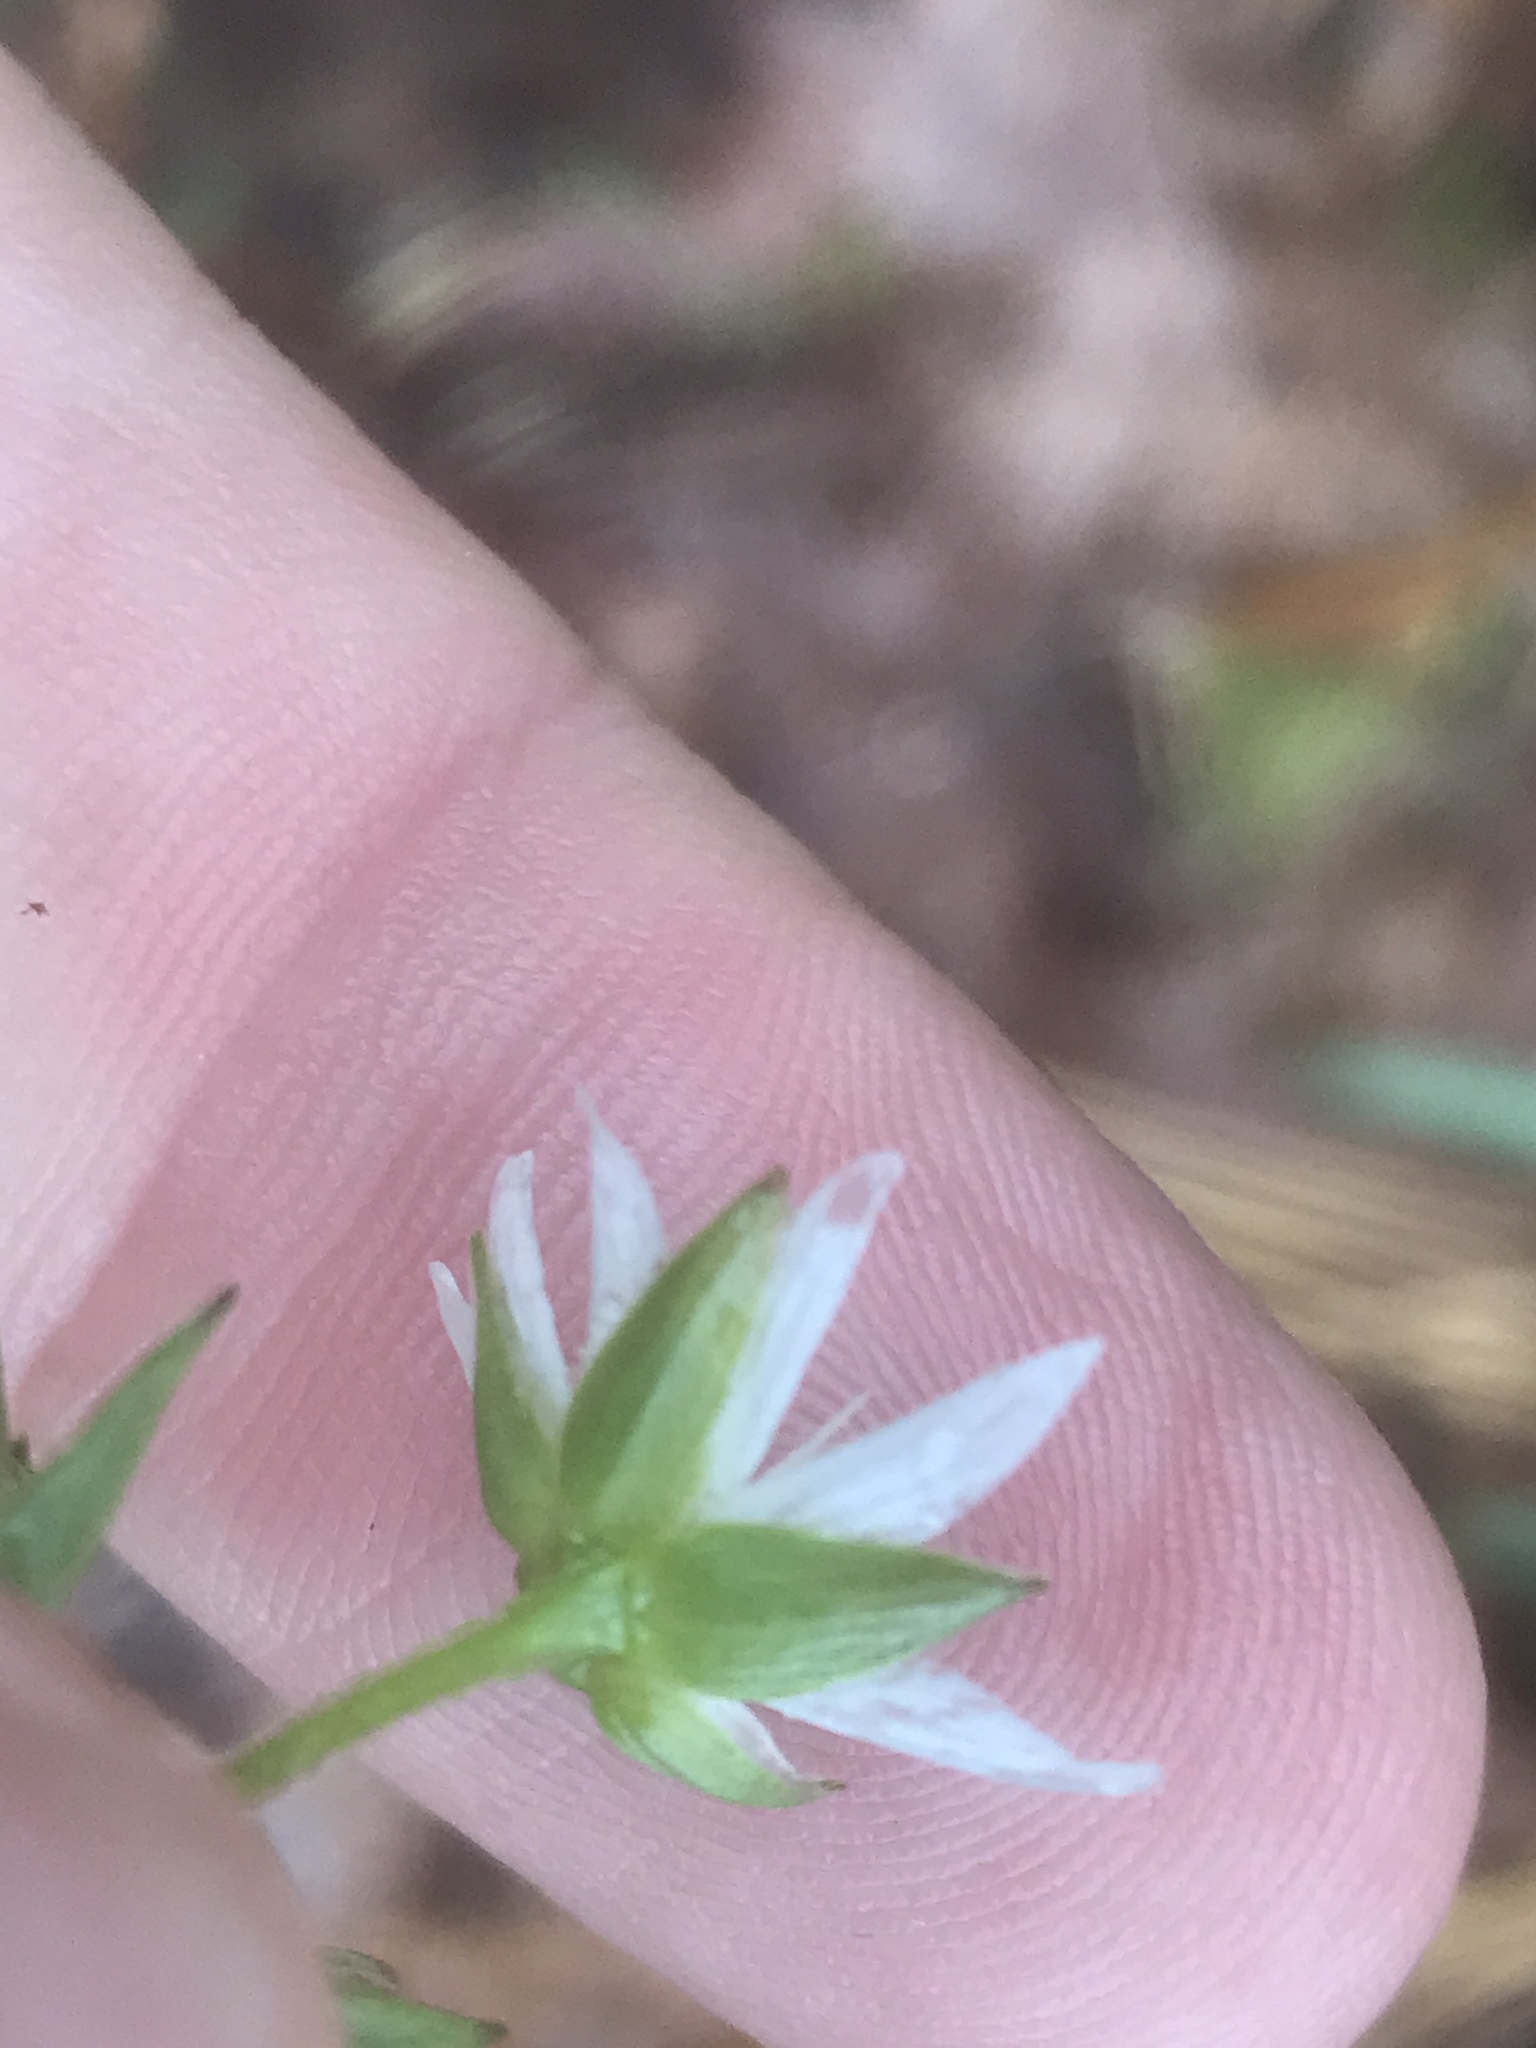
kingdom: Plantae
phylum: Tracheophyta
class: Magnoliopsida
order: Caryophyllales
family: Caryophyllaceae
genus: Stellaria
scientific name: Stellaria corei
